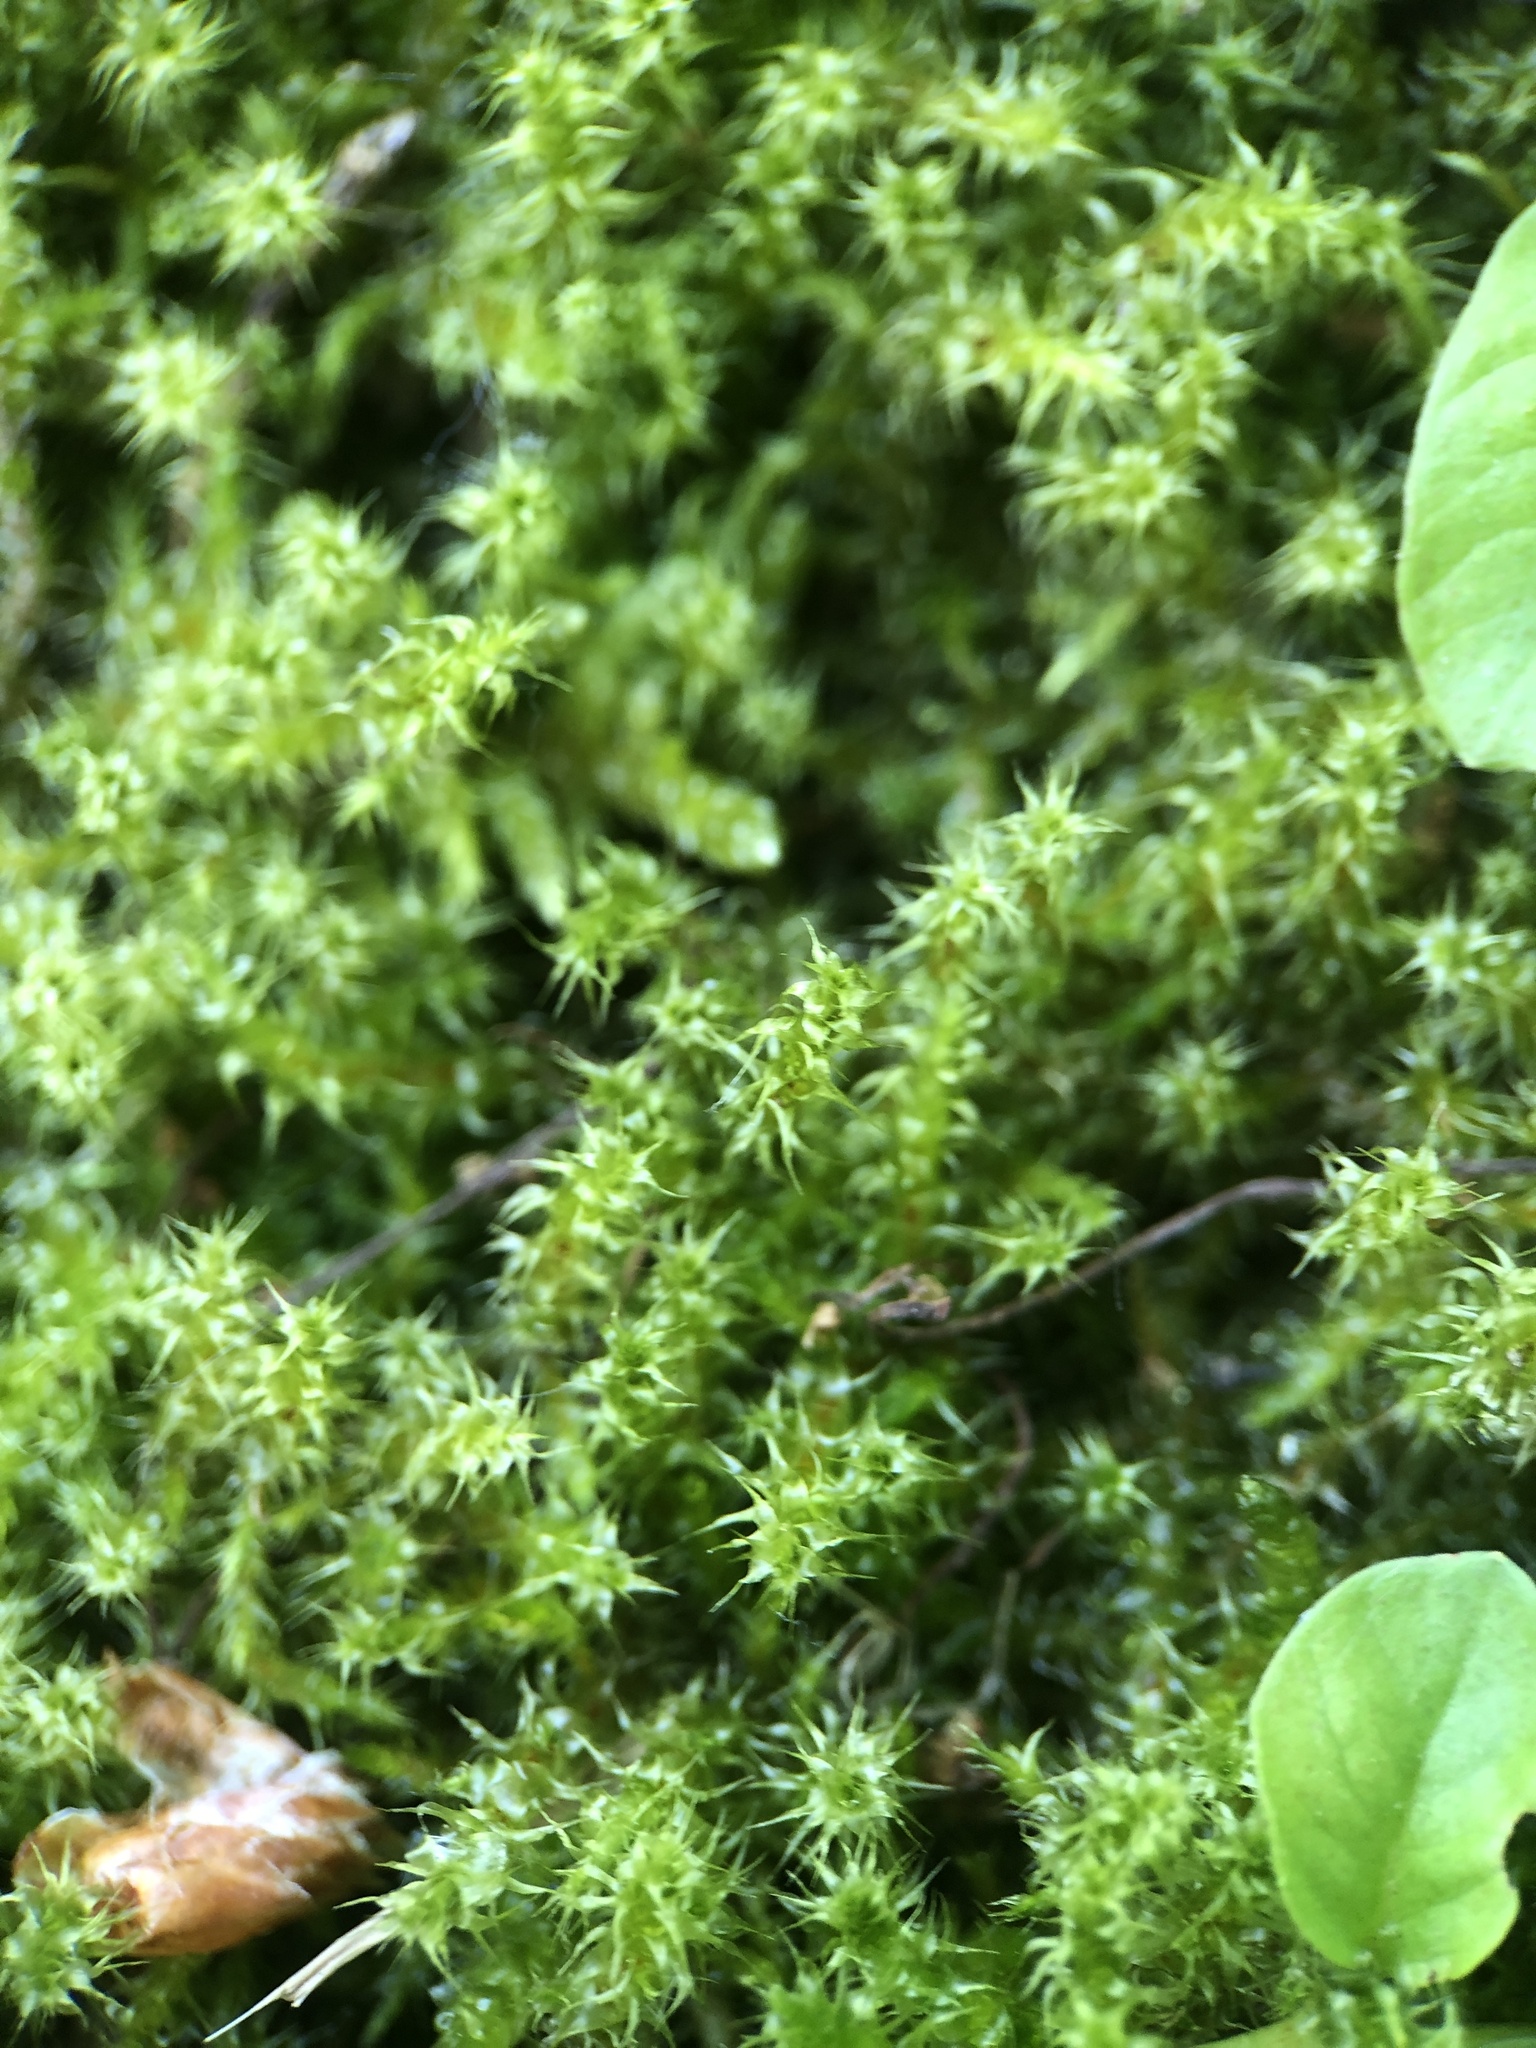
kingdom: Plantae
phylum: Bryophyta
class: Bryopsida
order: Hypnales
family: Hylocomiaceae
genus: Rhytidiadelphus
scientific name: Rhytidiadelphus squarrosus
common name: Springy turf-moss
